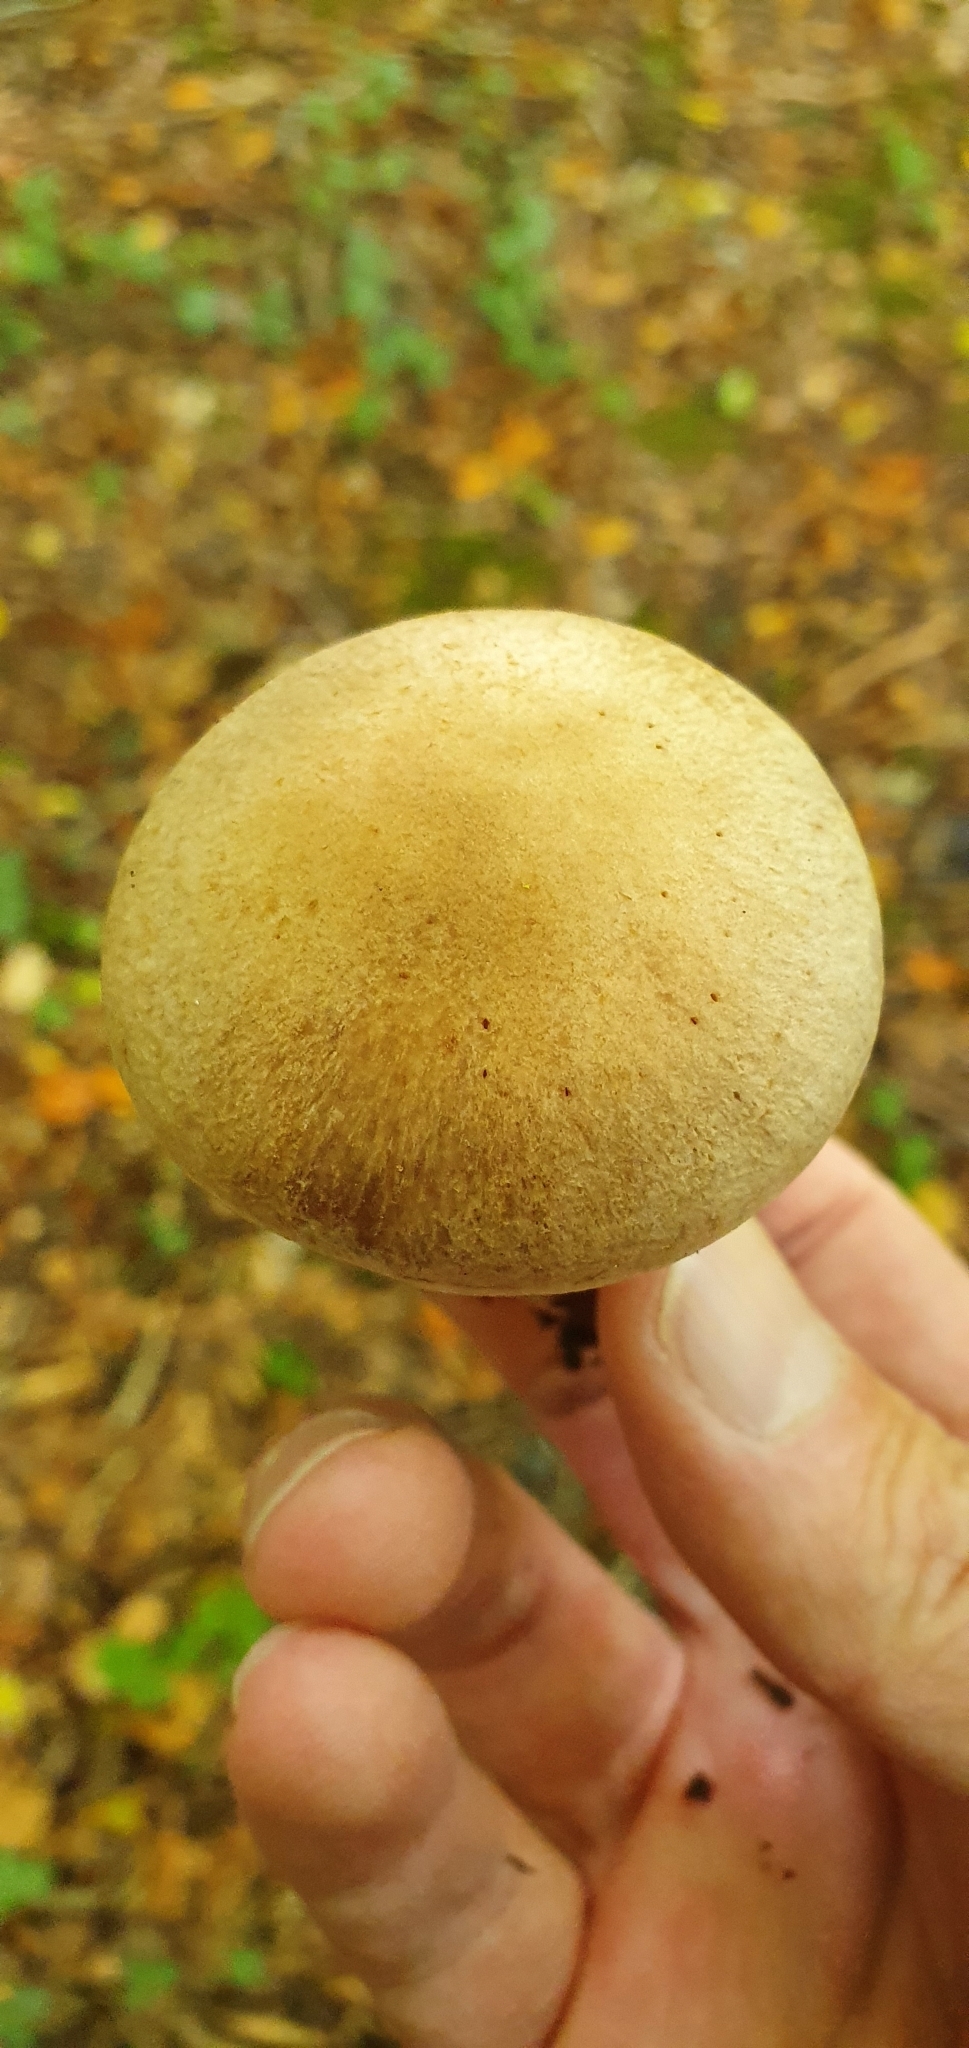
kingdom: Fungi
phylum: Basidiomycota
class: Agaricomycetes
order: Agaricales
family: Cortinariaceae
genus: Cortinarius
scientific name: Cortinarius torvus
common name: Stocking webcap
